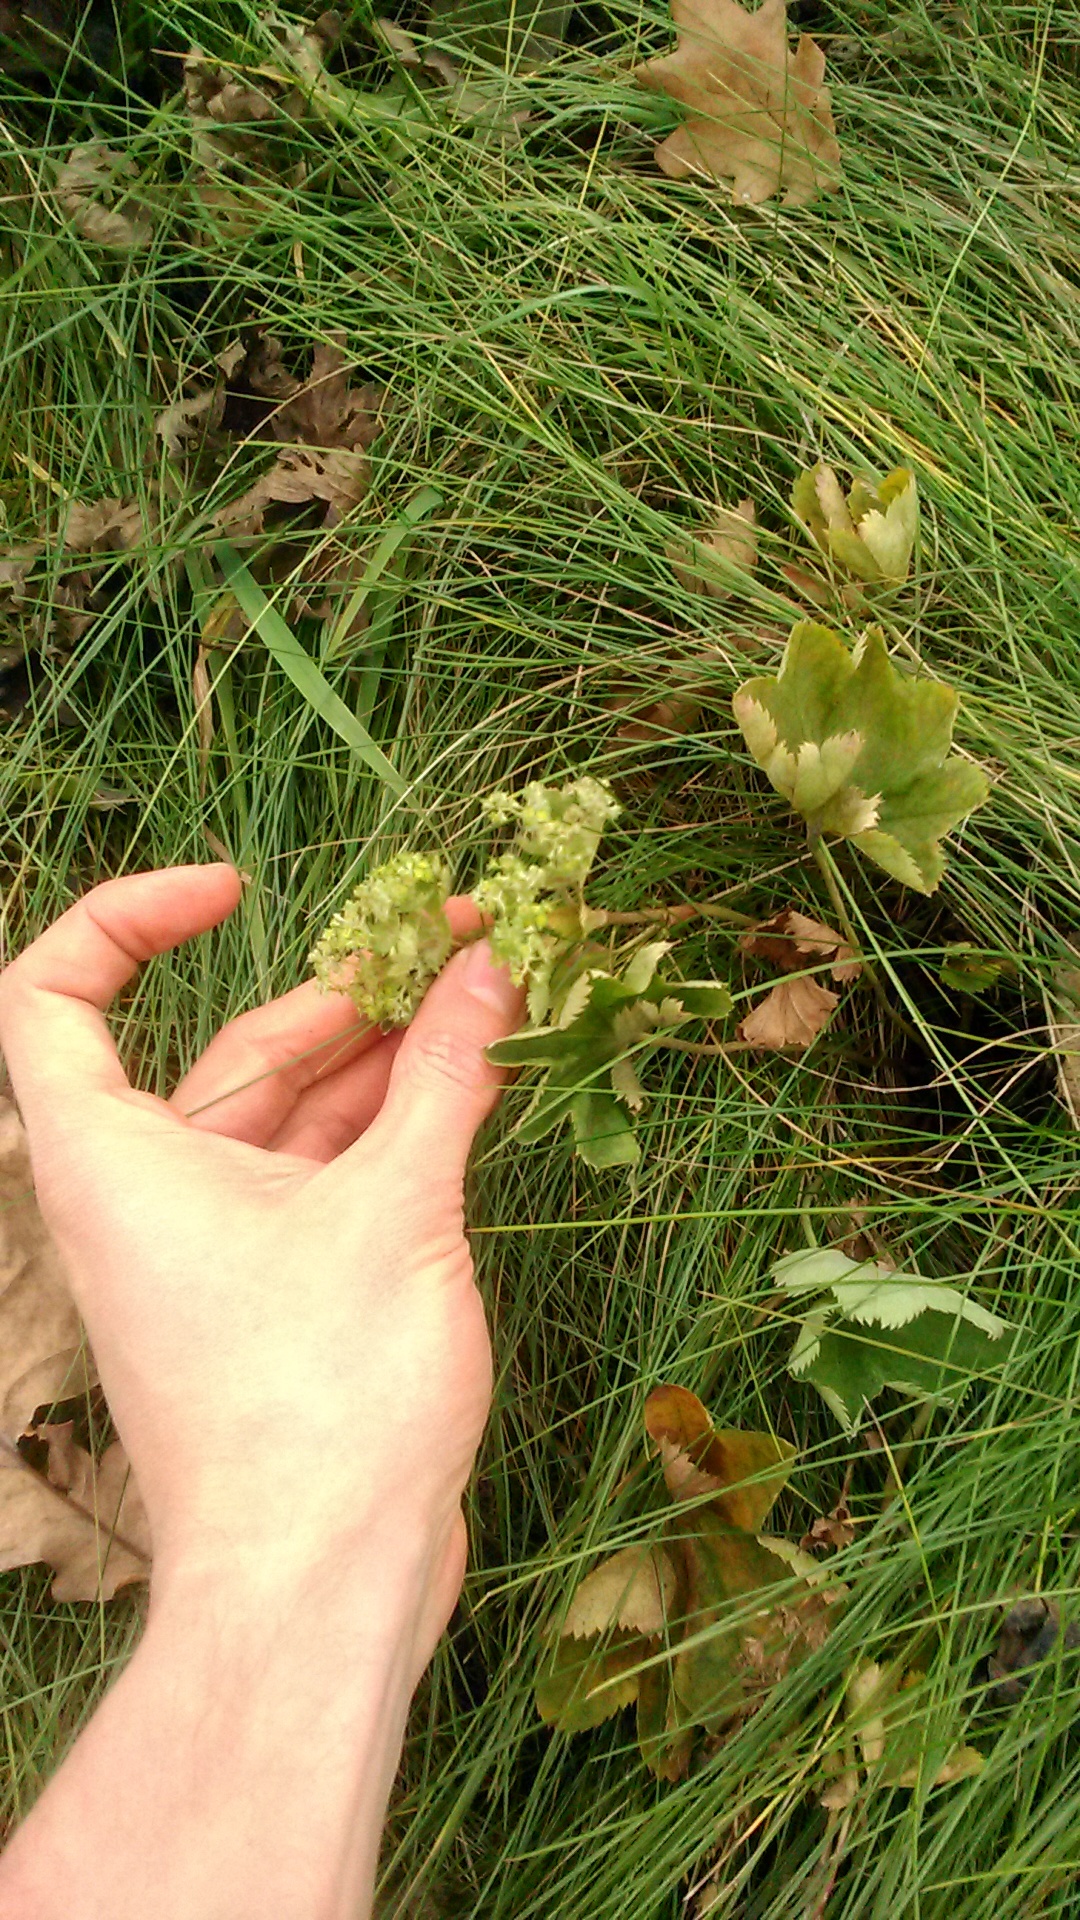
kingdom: Plantae
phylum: Tracheophyta
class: Magnoliopsida
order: Rosales
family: Rosaceae
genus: Alchemilla
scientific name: Alchemilla baltica
